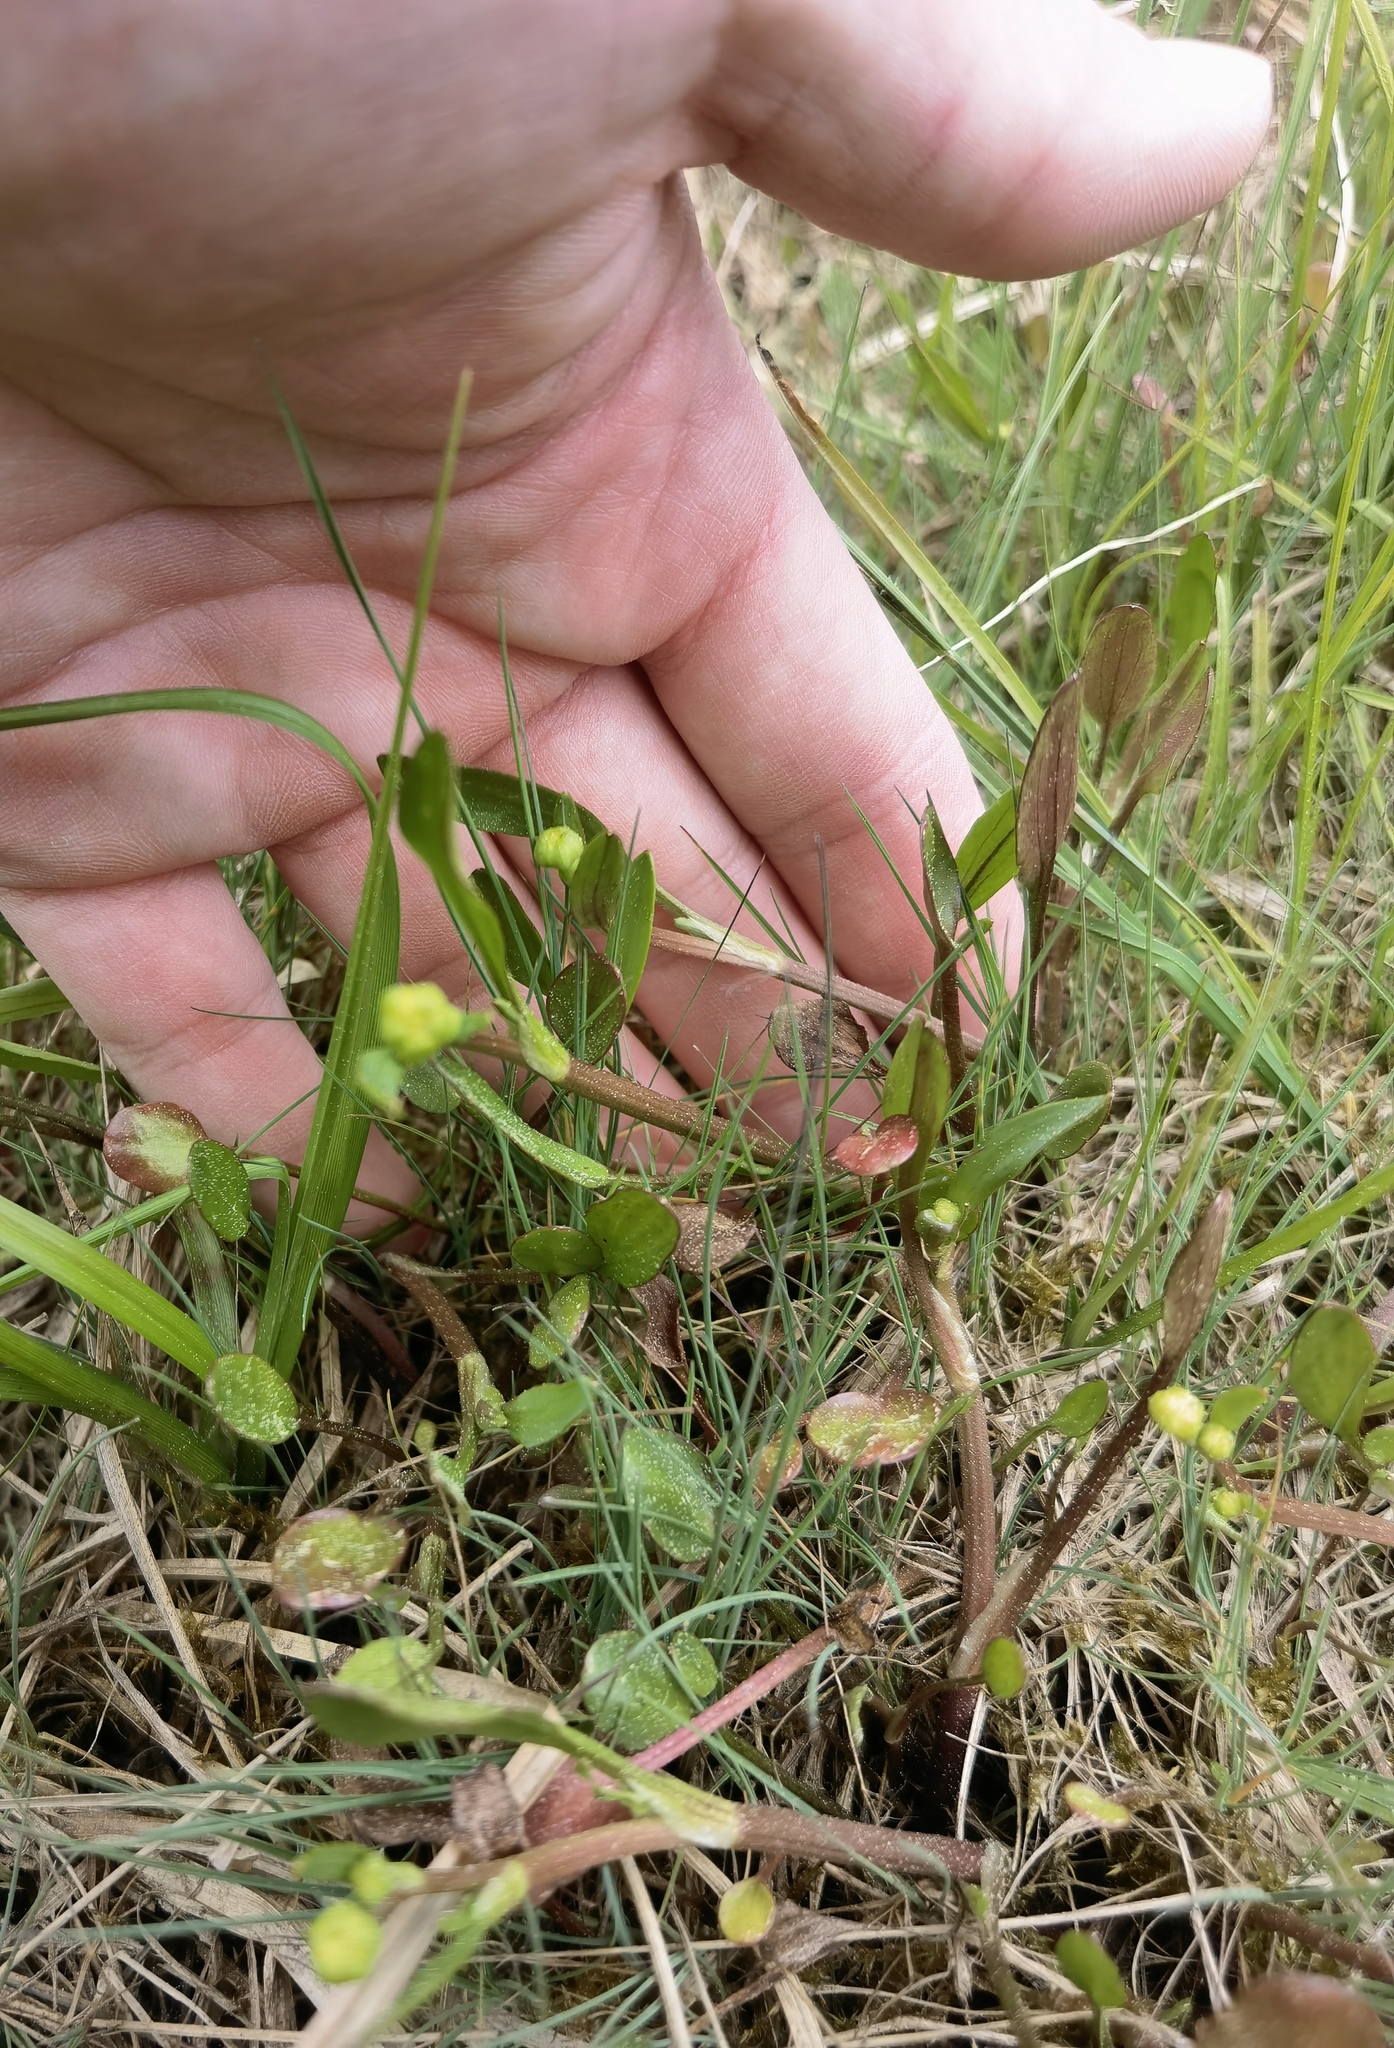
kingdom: Plantae
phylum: Tracheophyta
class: Magnoliopsida
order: Ranunculales
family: Ranunculaceae
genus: Ranunculus
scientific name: Ranunculus flammula
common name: Lesser spearwort
